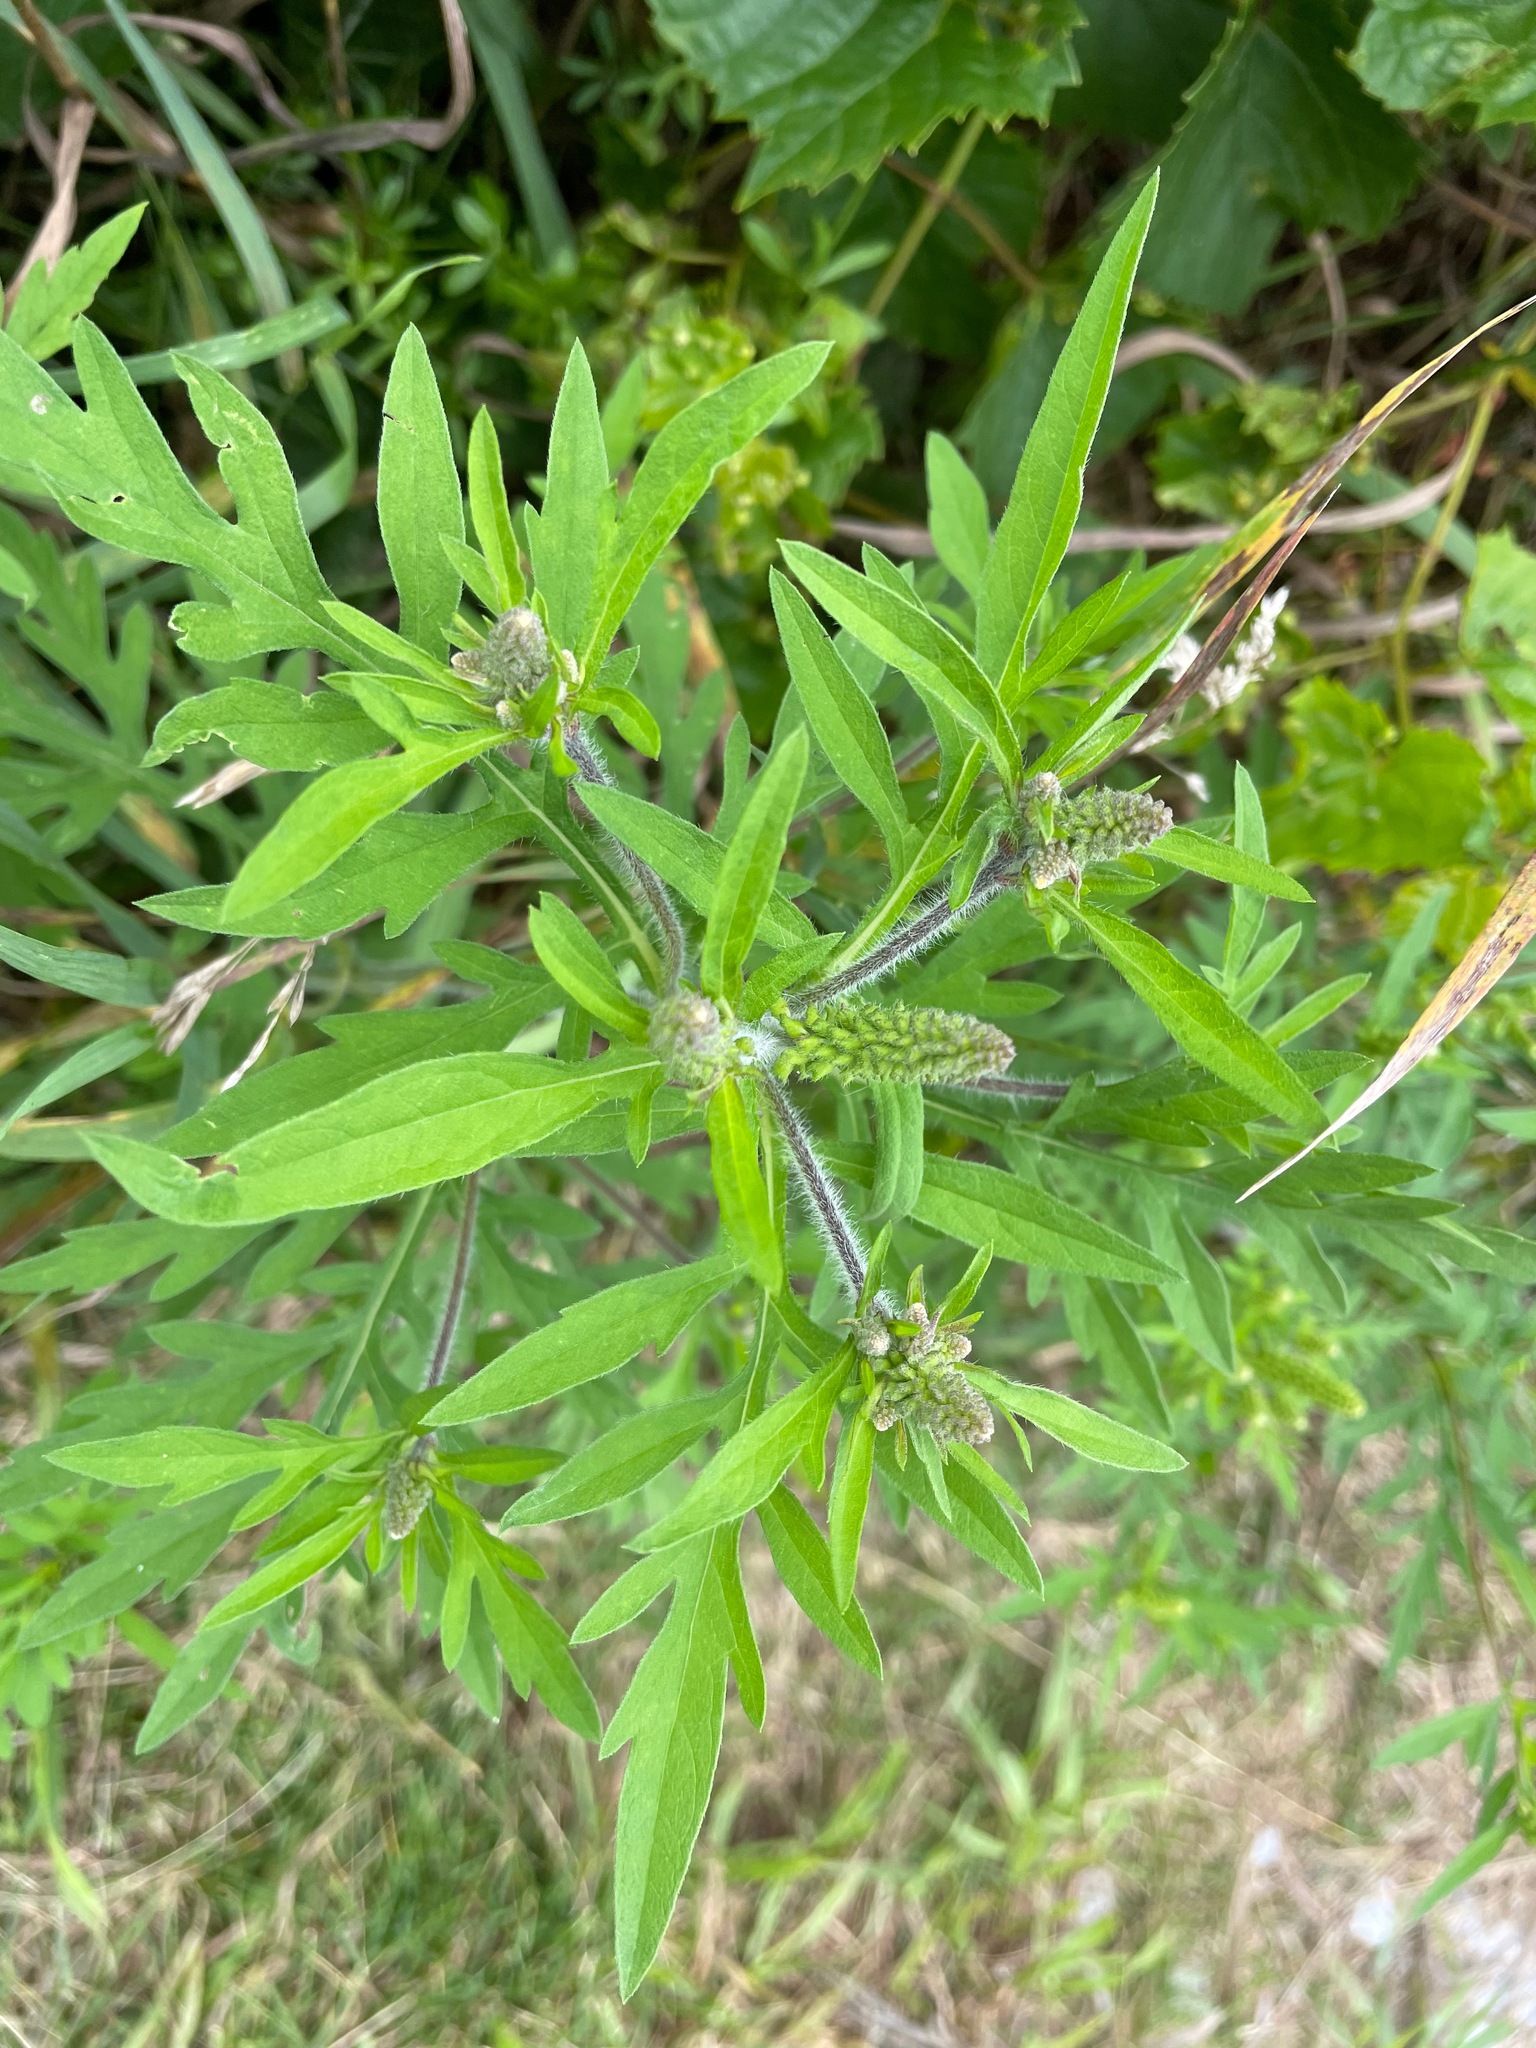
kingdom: Plantae
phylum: Tracheophyta
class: Magnoliopsida
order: Asterales
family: Asteraceae
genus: Ambrosia
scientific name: Ambrosia artemisiifolia
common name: Annual ragweed
